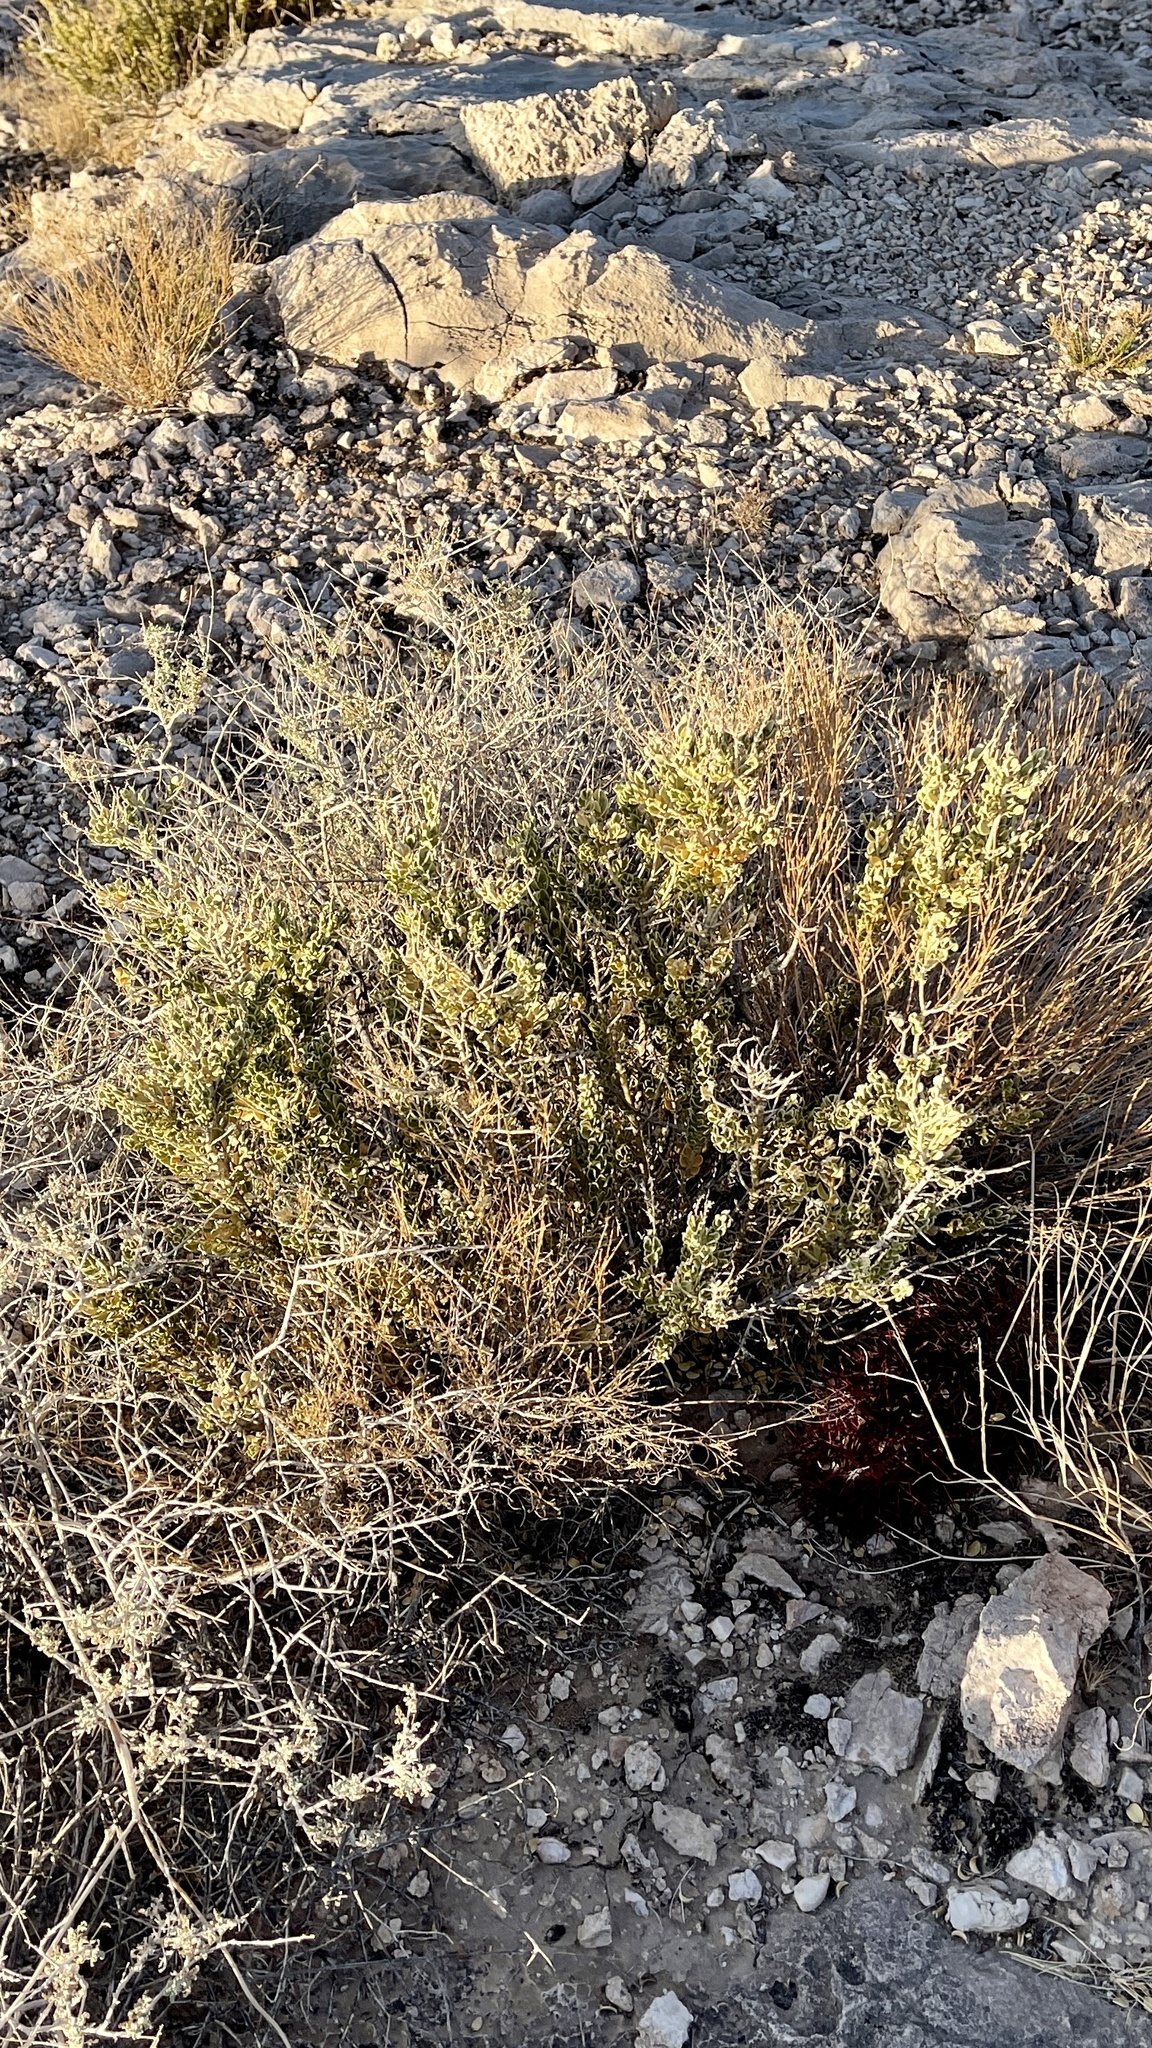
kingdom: Plantae
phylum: Tracheophyta
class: Magnoliopsida
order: Celastrales
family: Celastraceae
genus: Mortonia
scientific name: Mortonia utahensis
